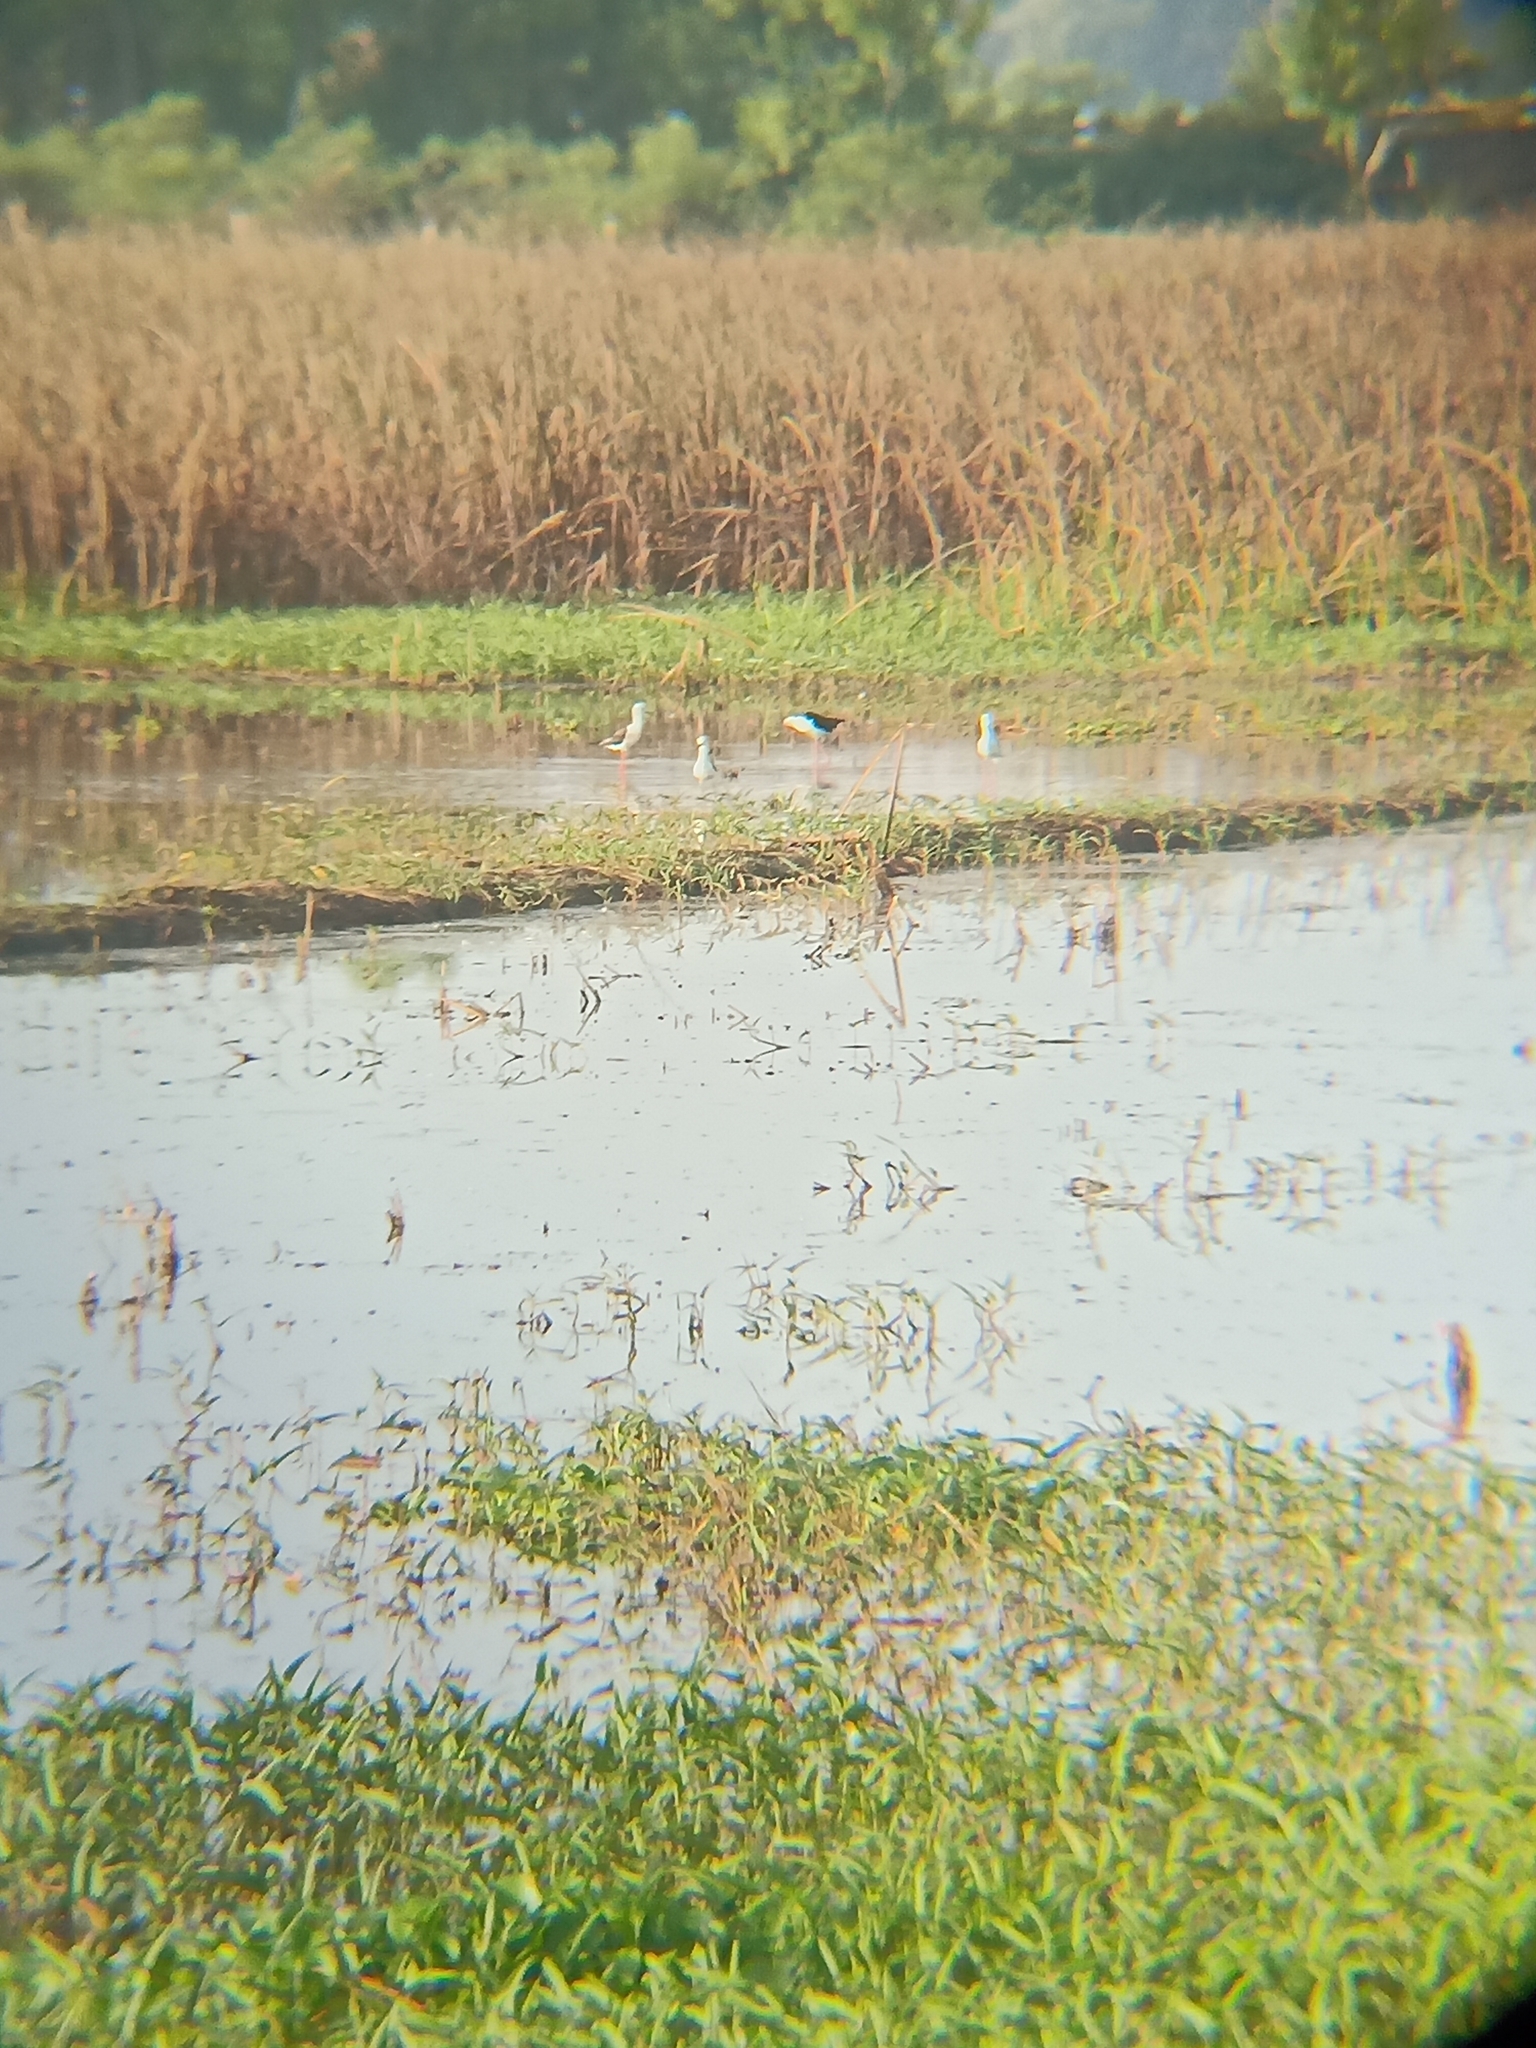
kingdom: Animalia
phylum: Chordata
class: Aves
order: Charadriiformes
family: Recurvirostridae
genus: Himantopus
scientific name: Himantopus himantopus
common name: Black-winged stilt
